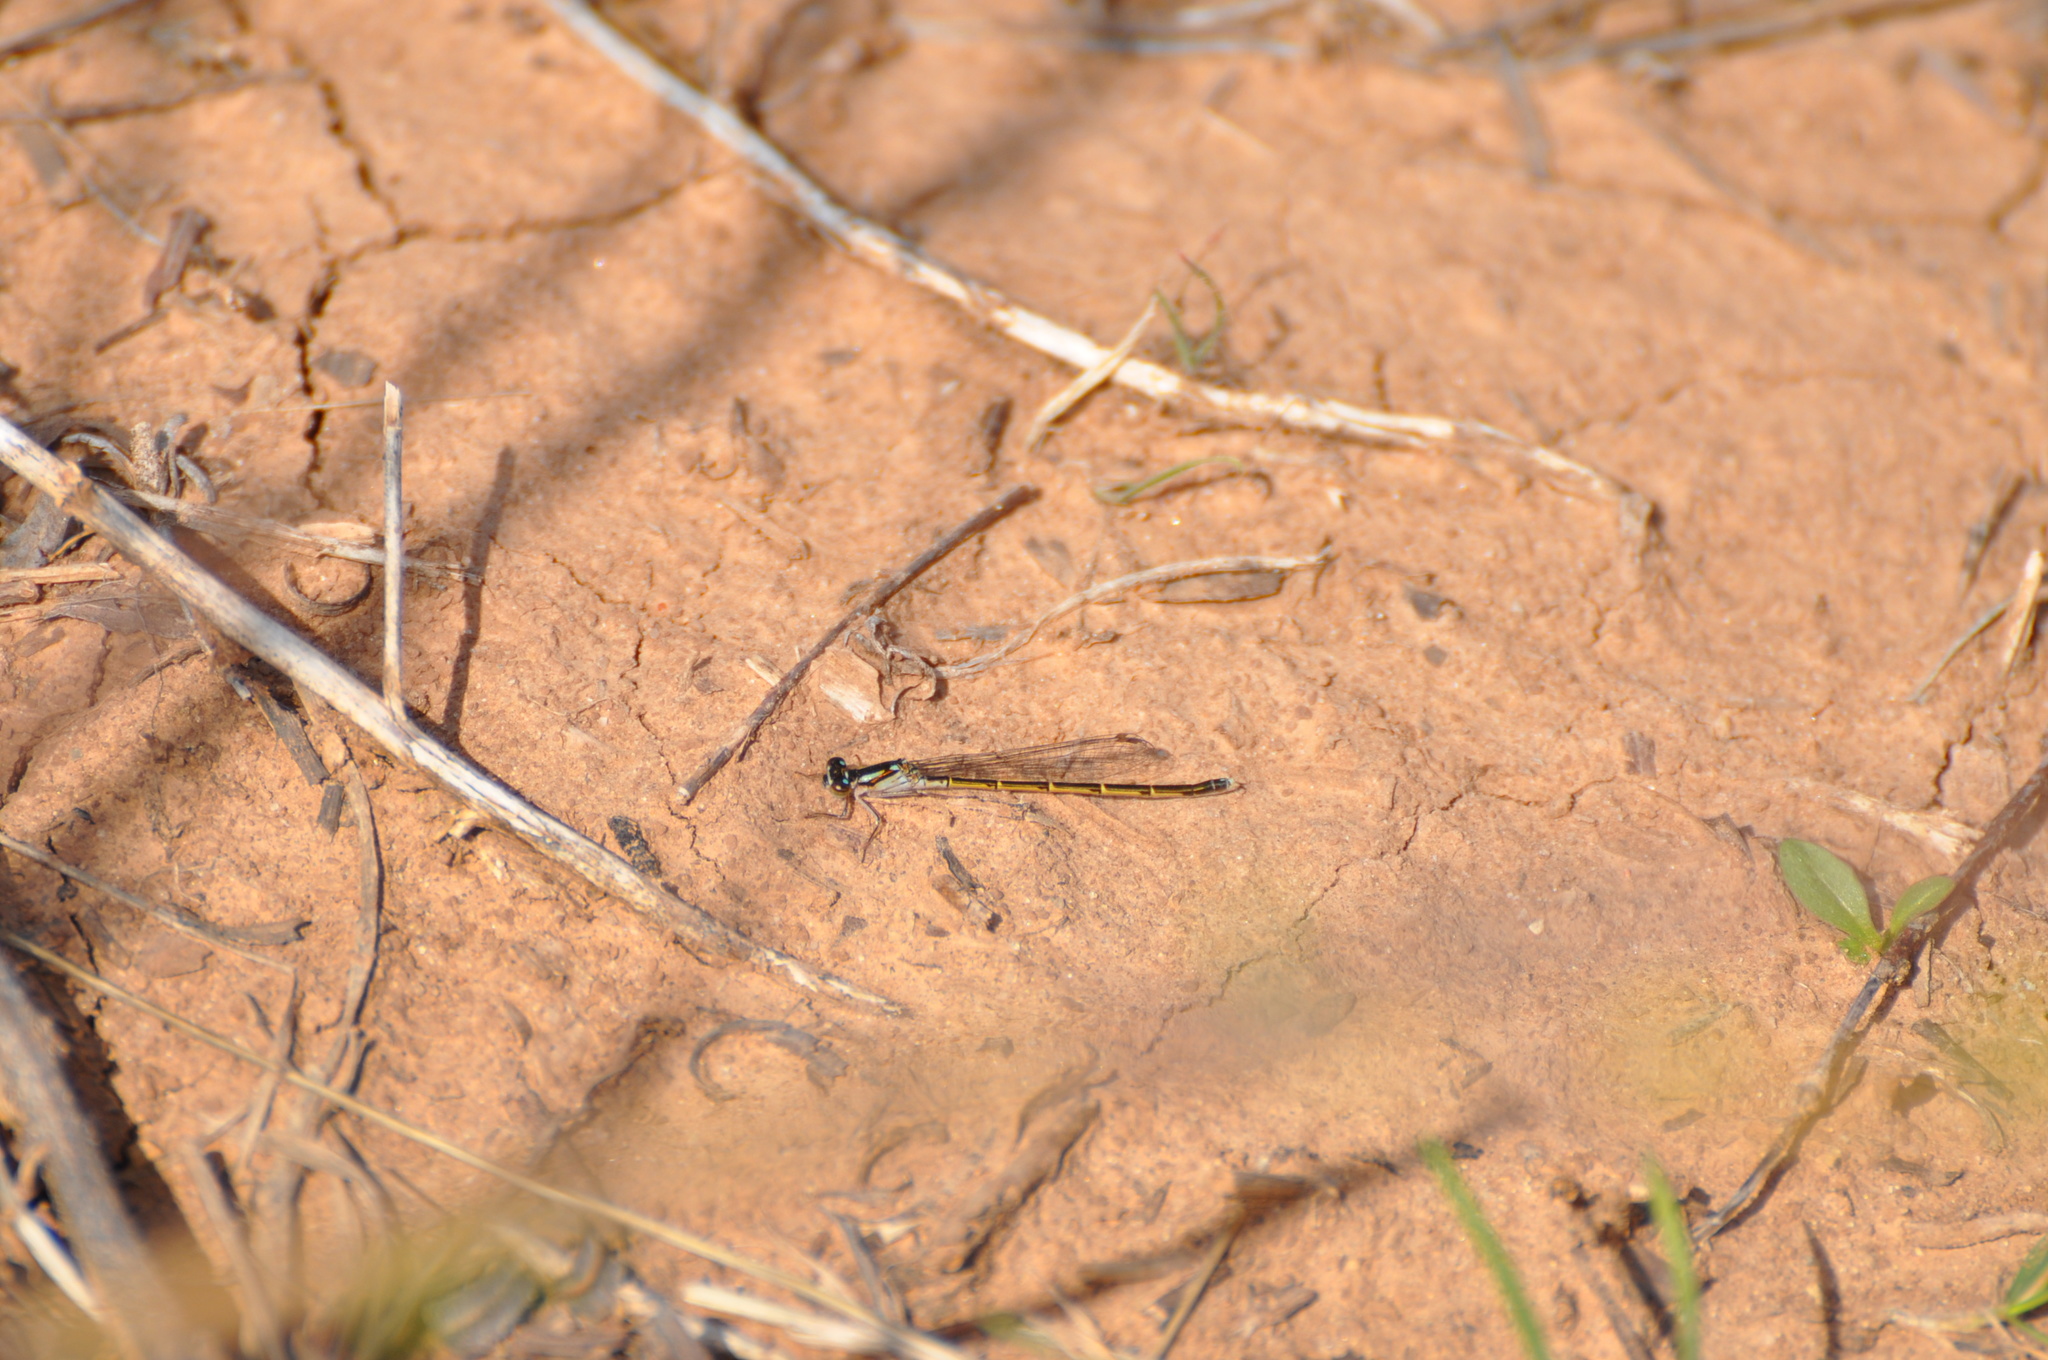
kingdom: Animalia
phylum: Arthropoda
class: Insecta
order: Odonata
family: Coenagrionidae
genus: Ischnura
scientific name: Ischnura posita
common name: Fragile forktail
